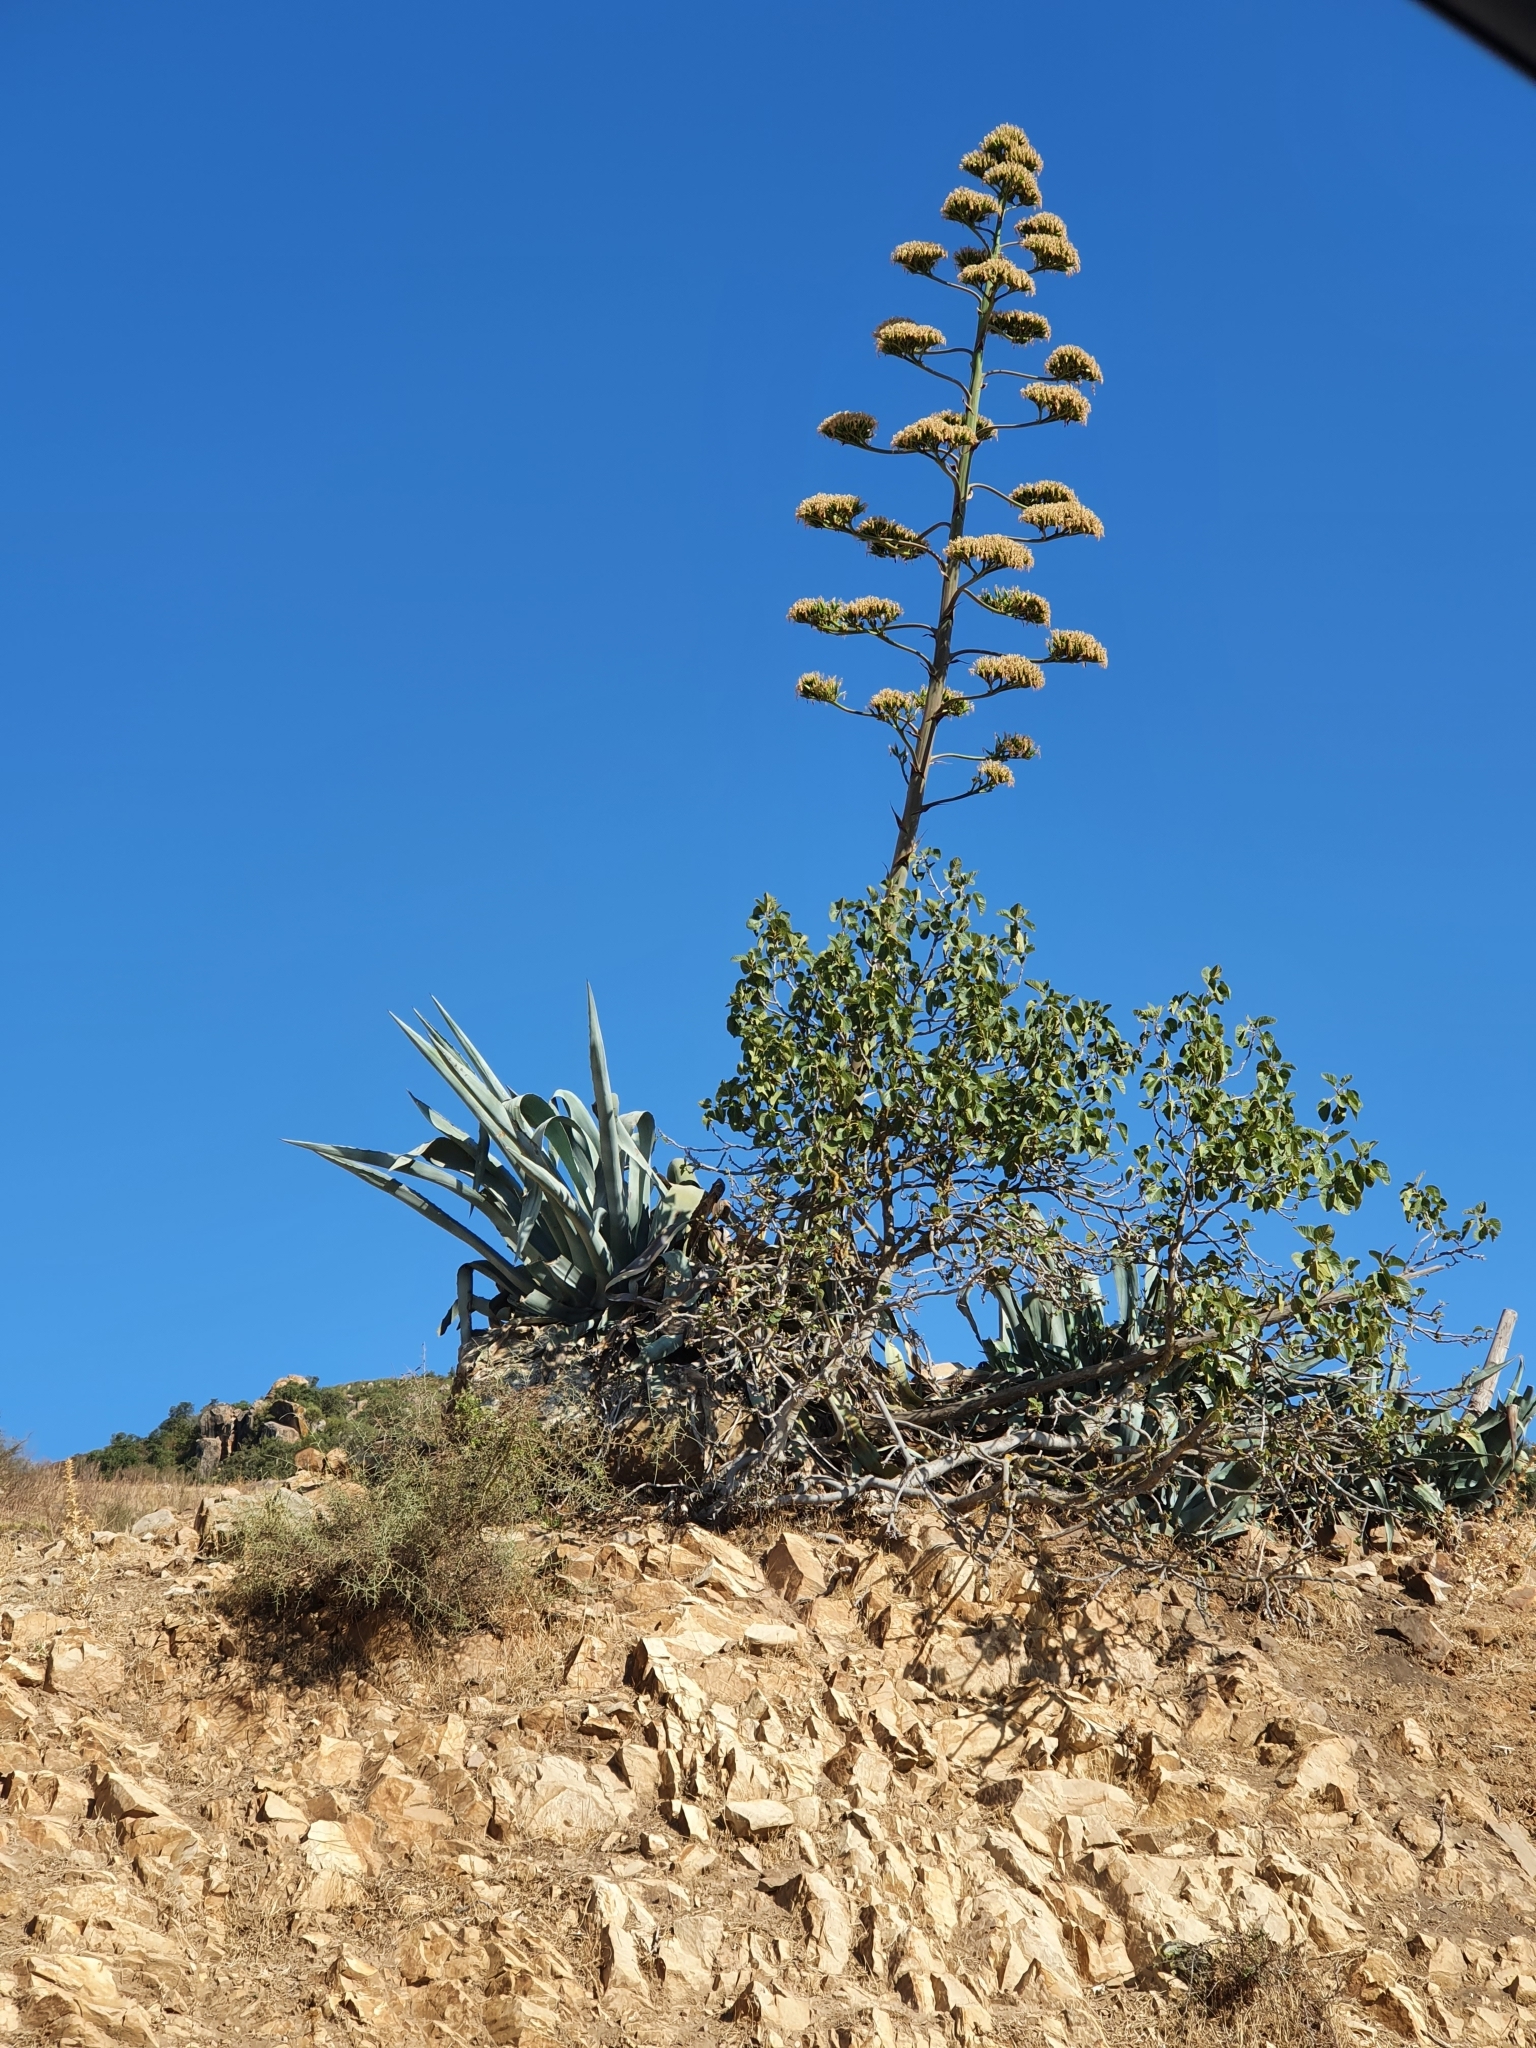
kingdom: Plantae
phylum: Tracheophyta
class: Liliopsida
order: Asparagales
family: Asparagaceae
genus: Agave
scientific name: Agave americana
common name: Centuryplant
